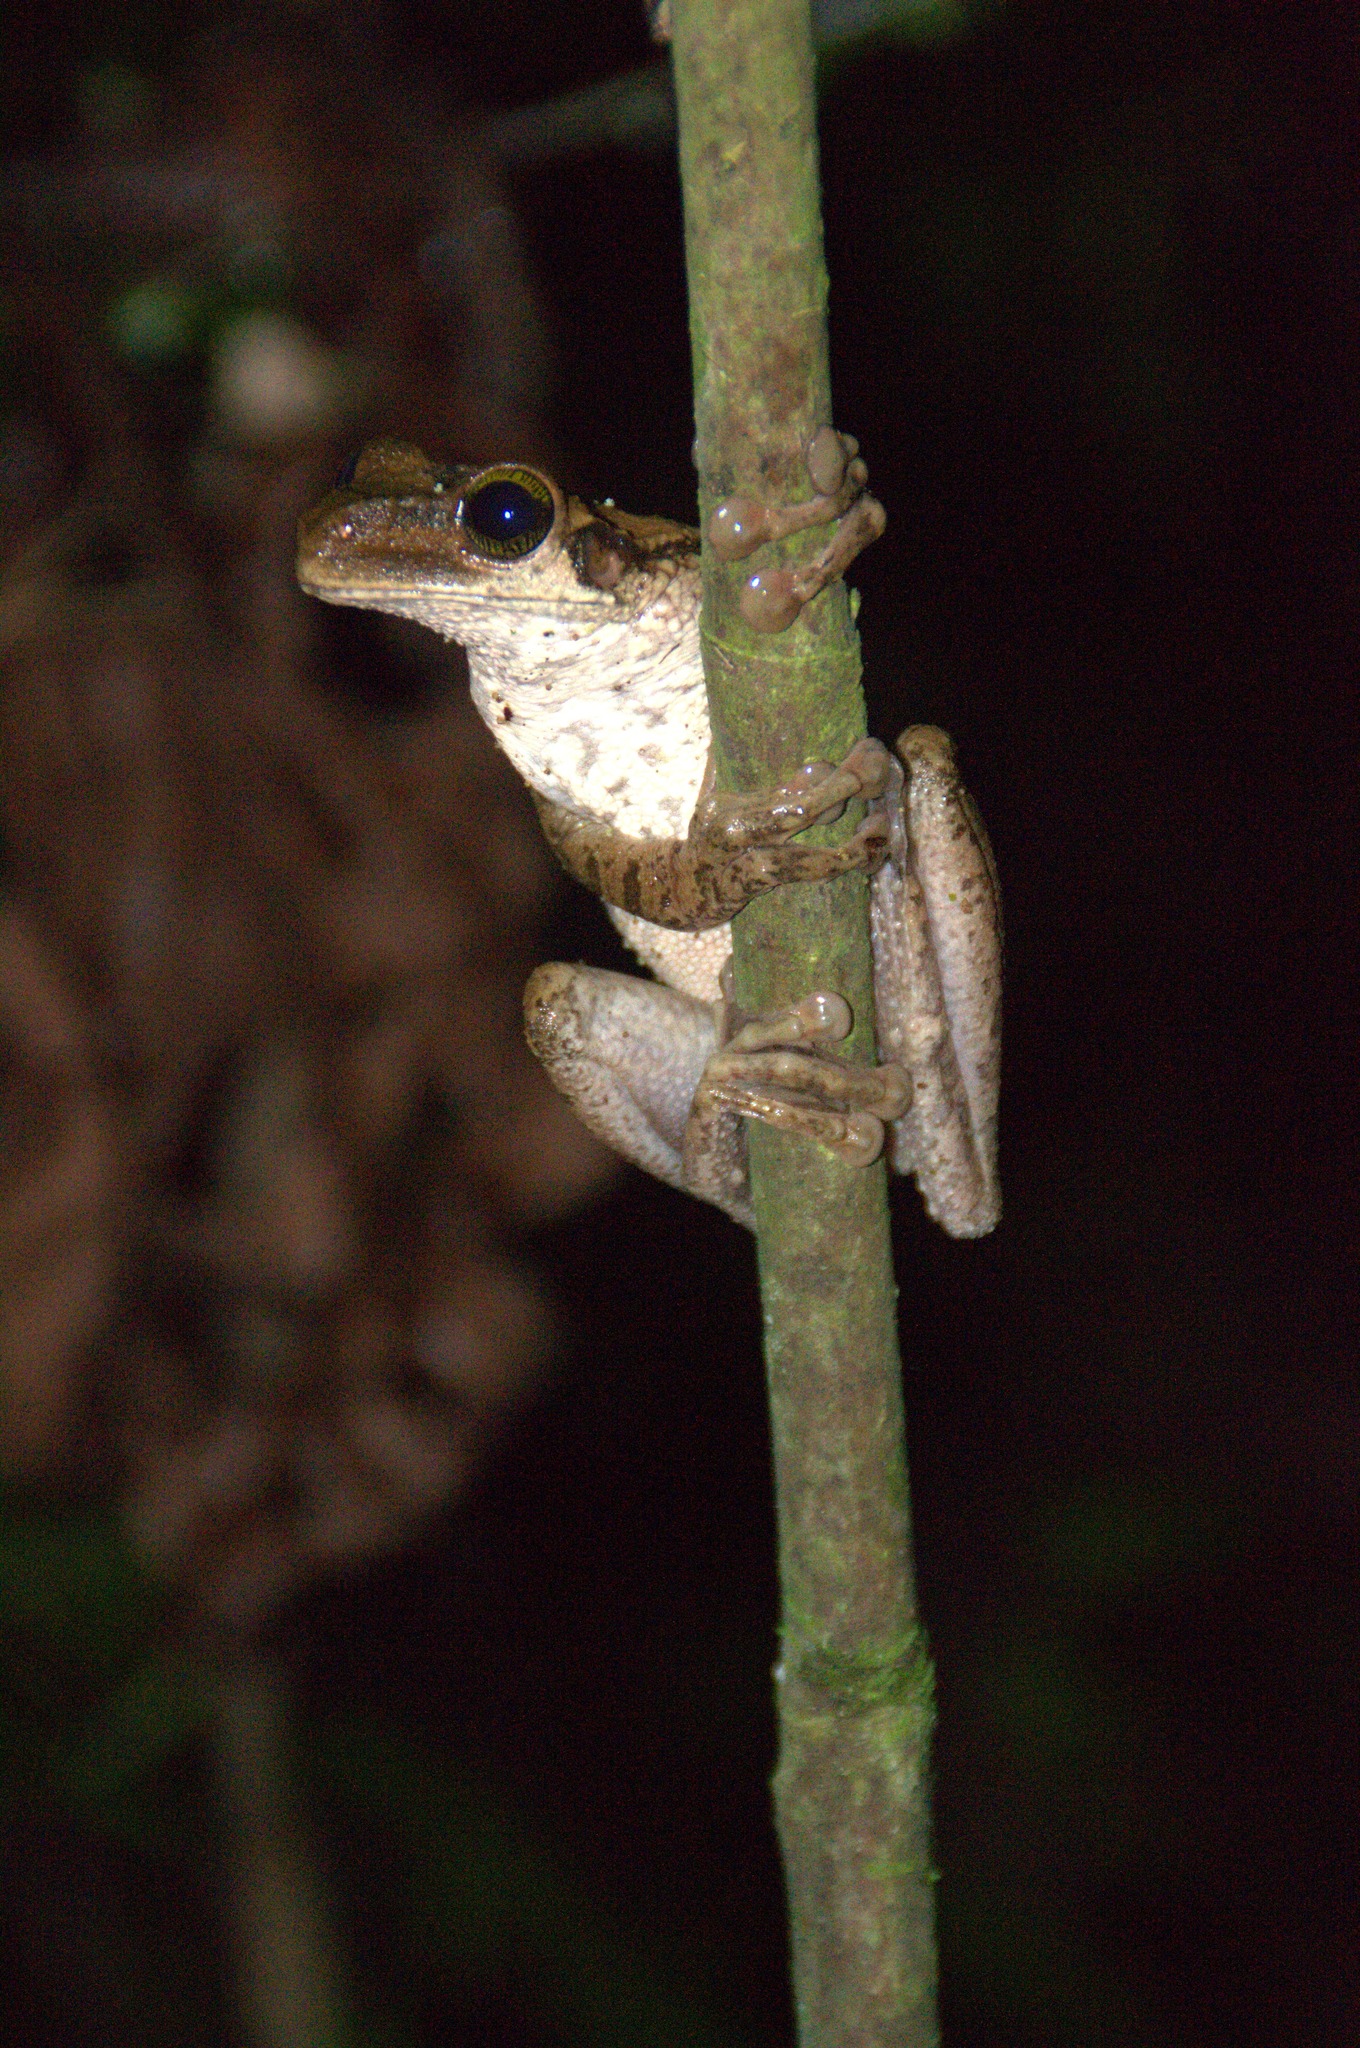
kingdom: Animalia
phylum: Chordata
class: Amphibia
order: Anura
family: Hylidae
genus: Osteocephalus
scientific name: Osteocephalus taurinus
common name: Manaus slender-legged treefrog
